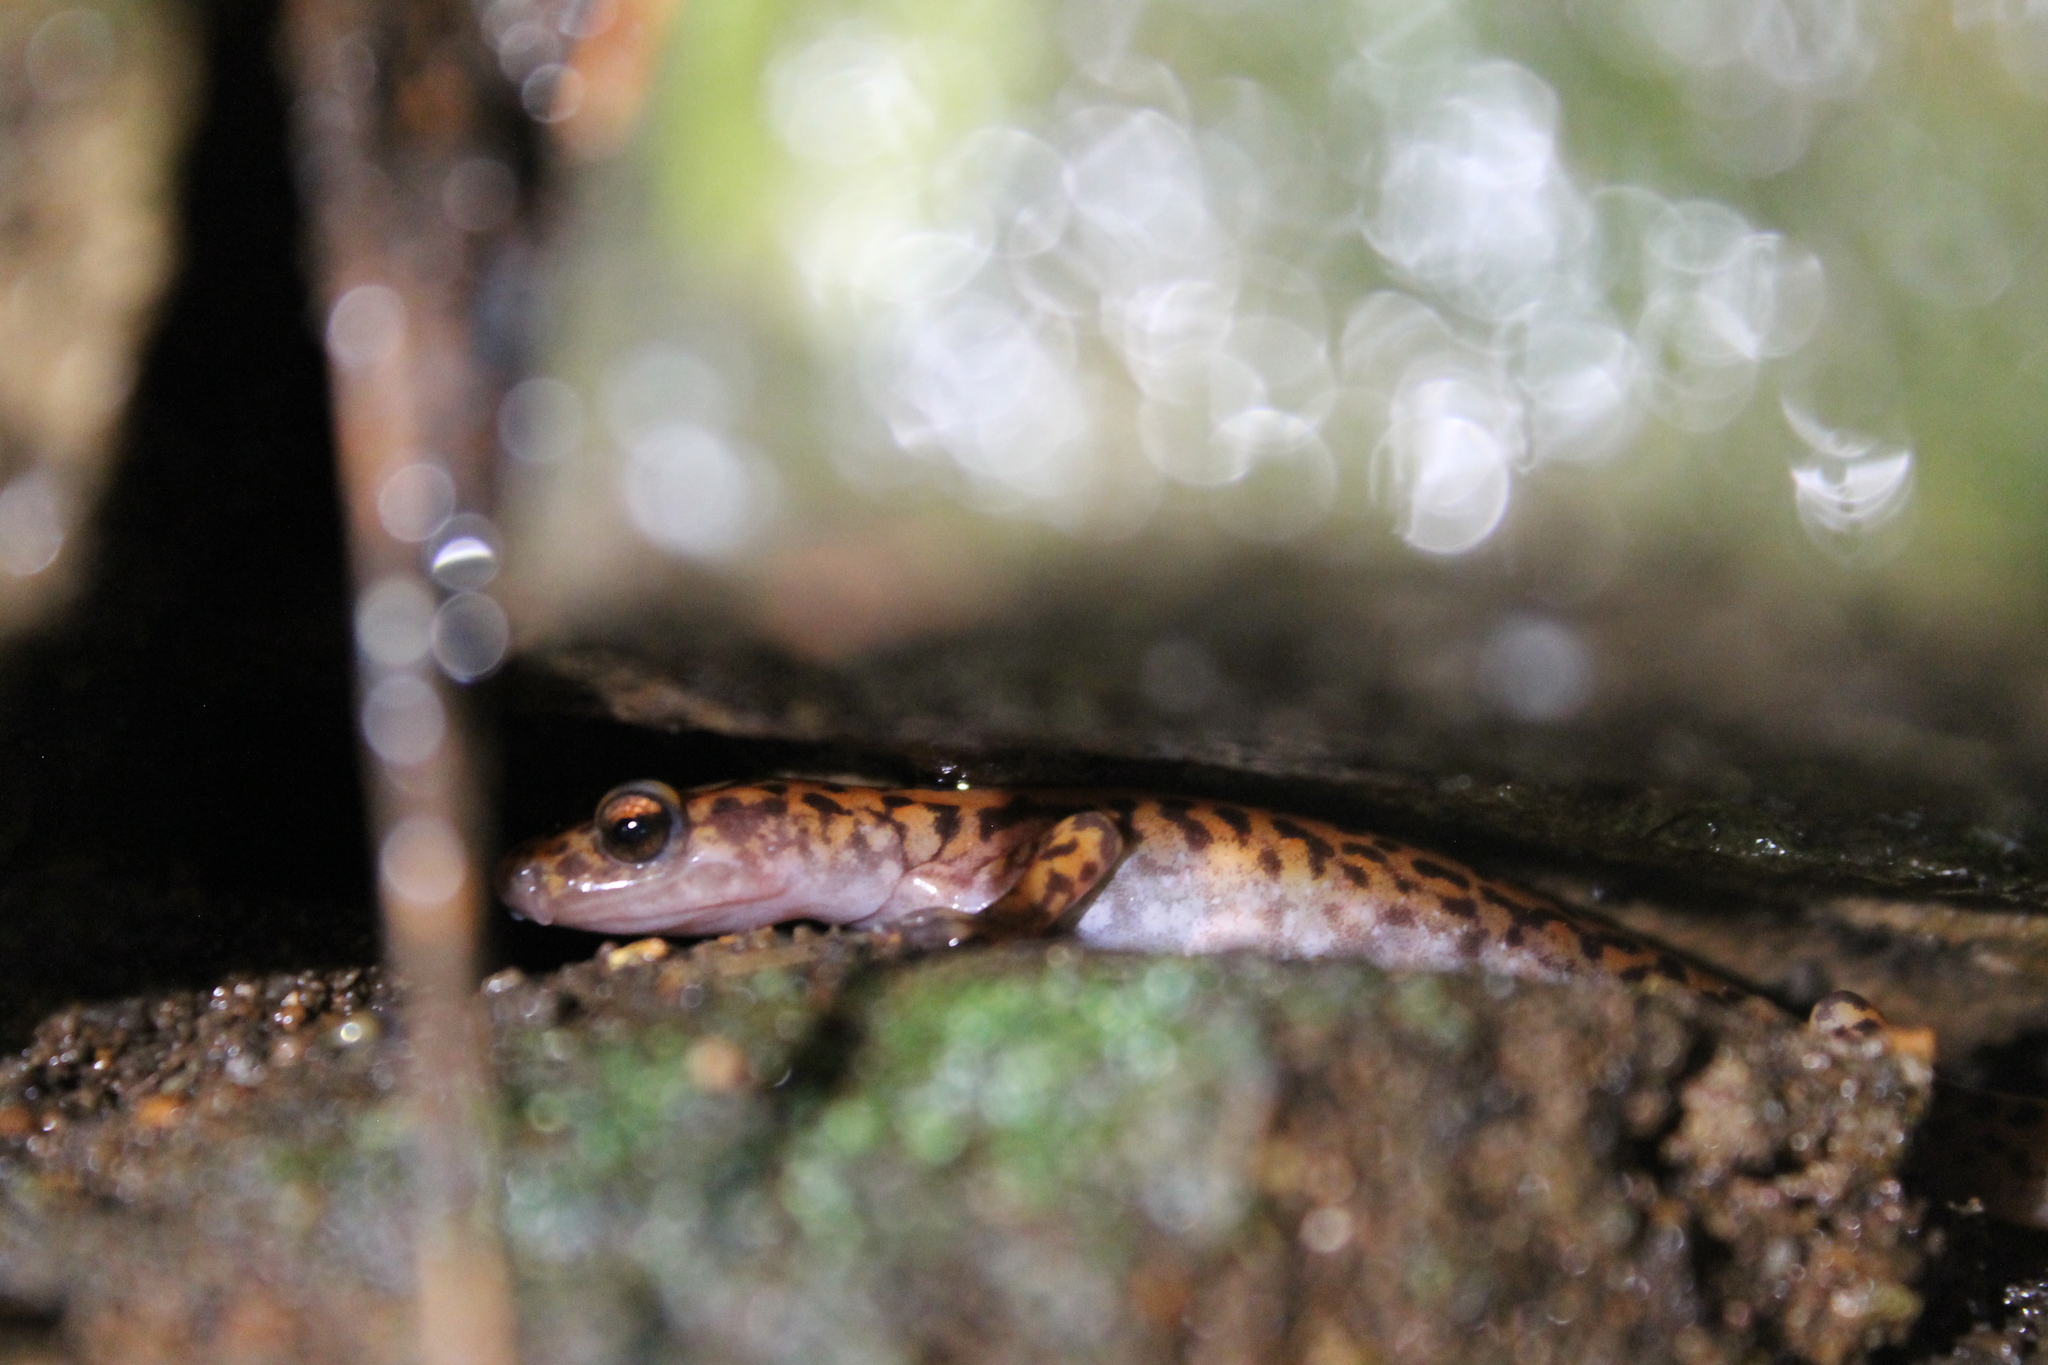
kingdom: Animalia
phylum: Chordata
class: Amphibia
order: Caudata
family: Plethodontidae
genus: Eurycea
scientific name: Eurycea lucifuga
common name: Cave salamander
